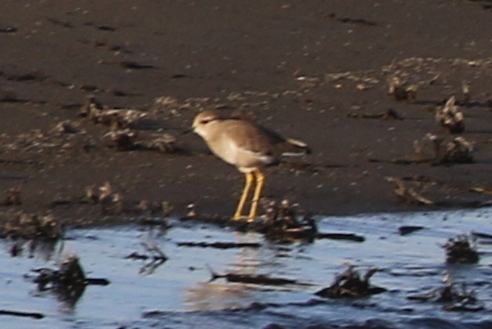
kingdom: Animalia
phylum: Chordata
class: Aves
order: Charadriiformes
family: Charadriidae
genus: Vanellus
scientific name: Vanellus leucurus
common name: White-tailed lapwing
